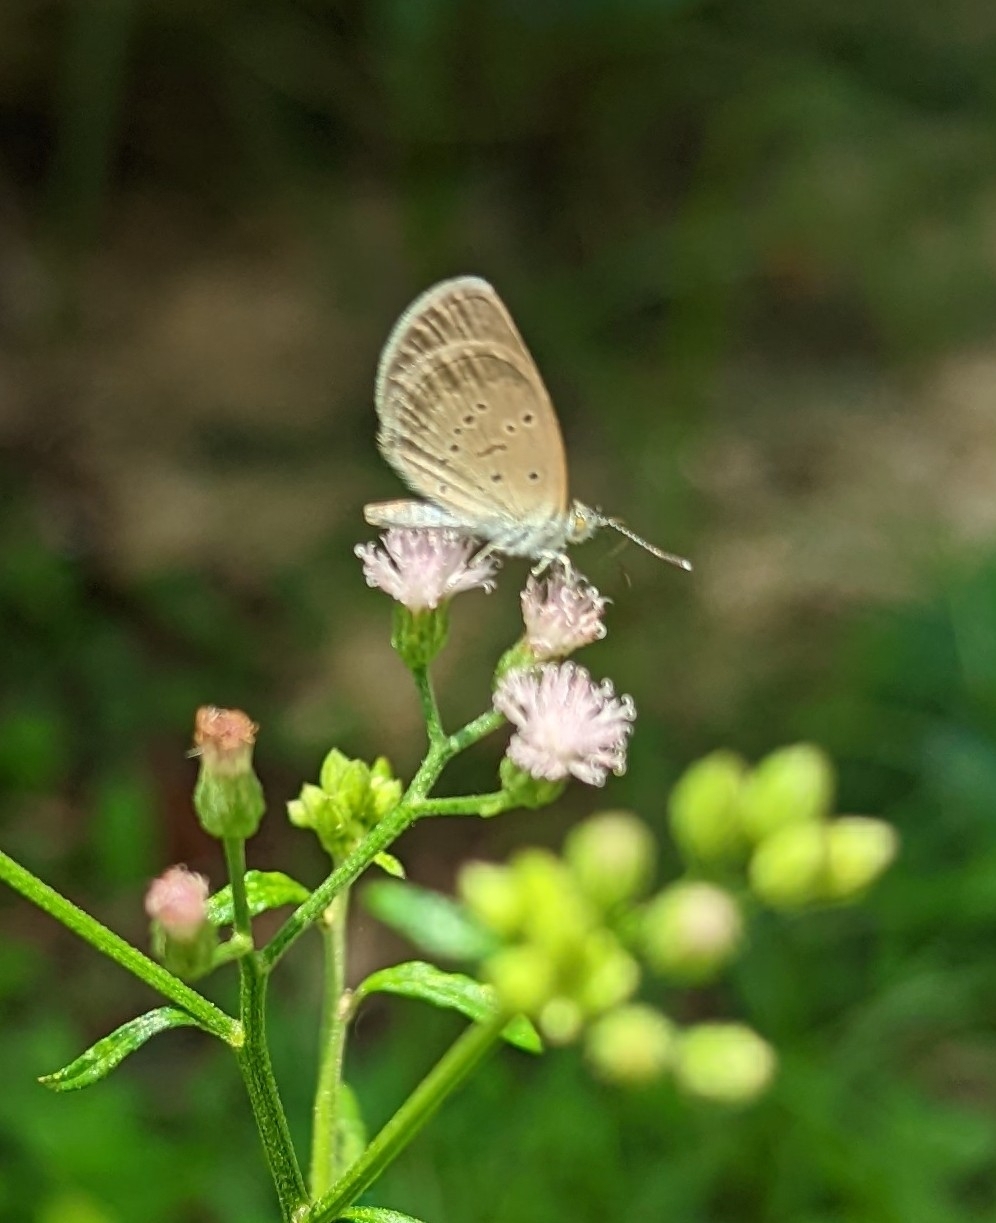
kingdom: Animalia
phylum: Arthropoda
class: Insecta
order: Lepidoptera
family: Lycaenidae
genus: Zizina
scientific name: Zizina otis
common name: Lesser grass blue
